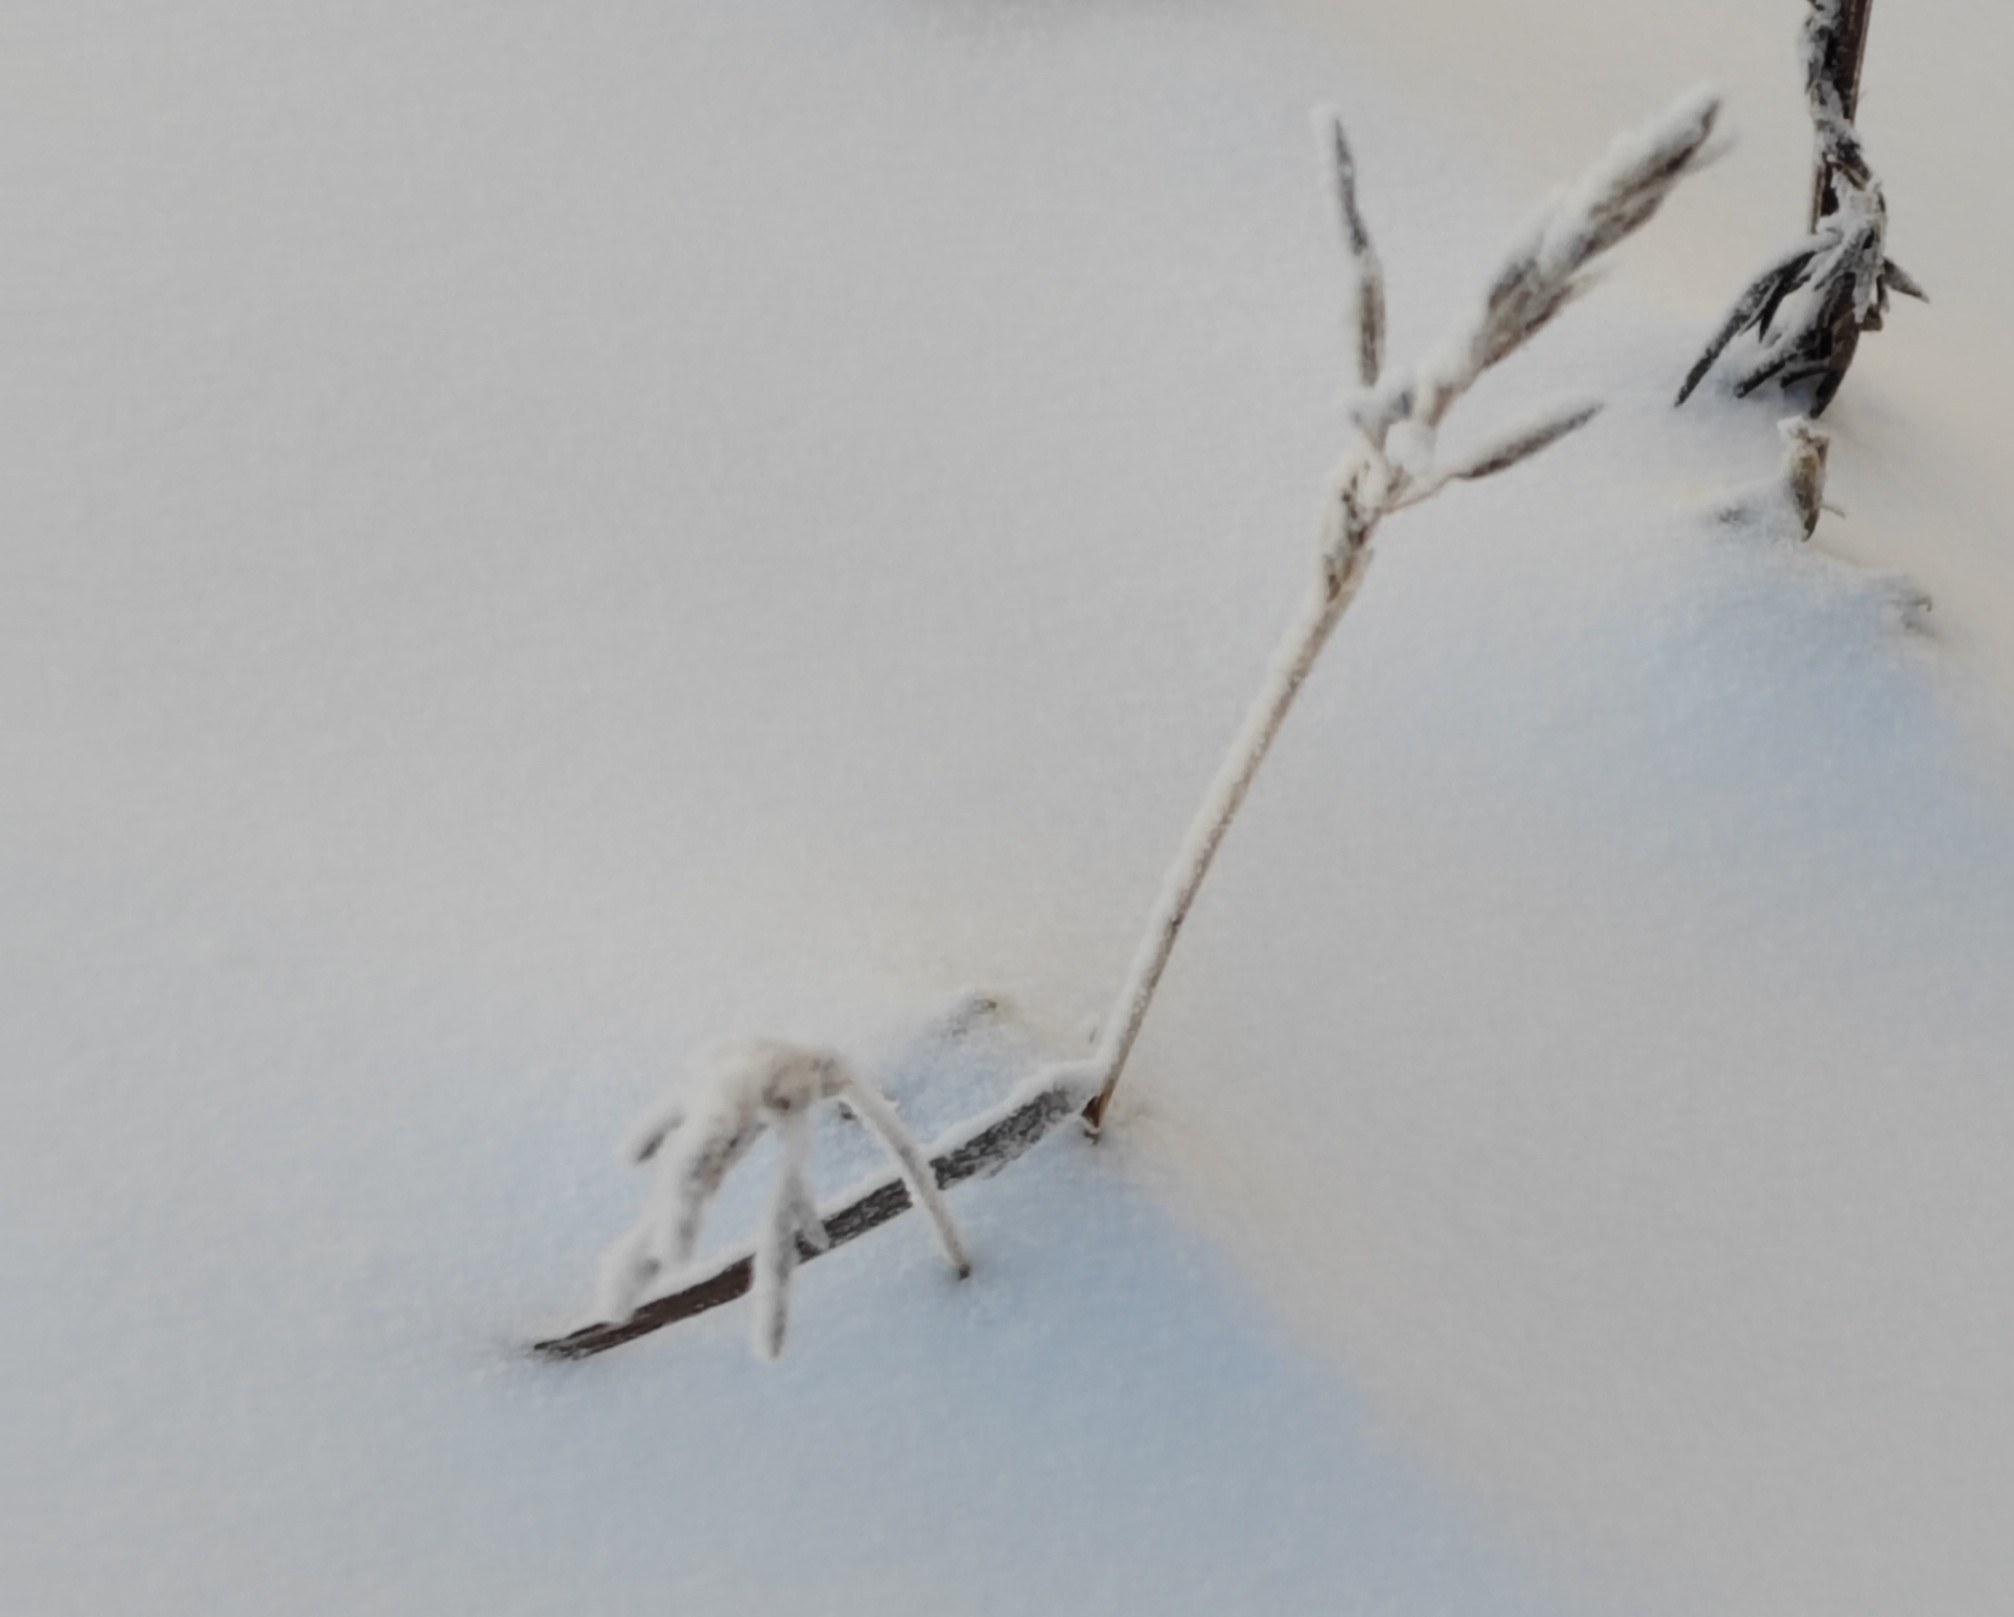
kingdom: Plantae
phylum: Tracheophyta
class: Liliopsida
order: Poales
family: Poaceae
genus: Bromus
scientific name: Bromus inermis
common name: Smooth brome
